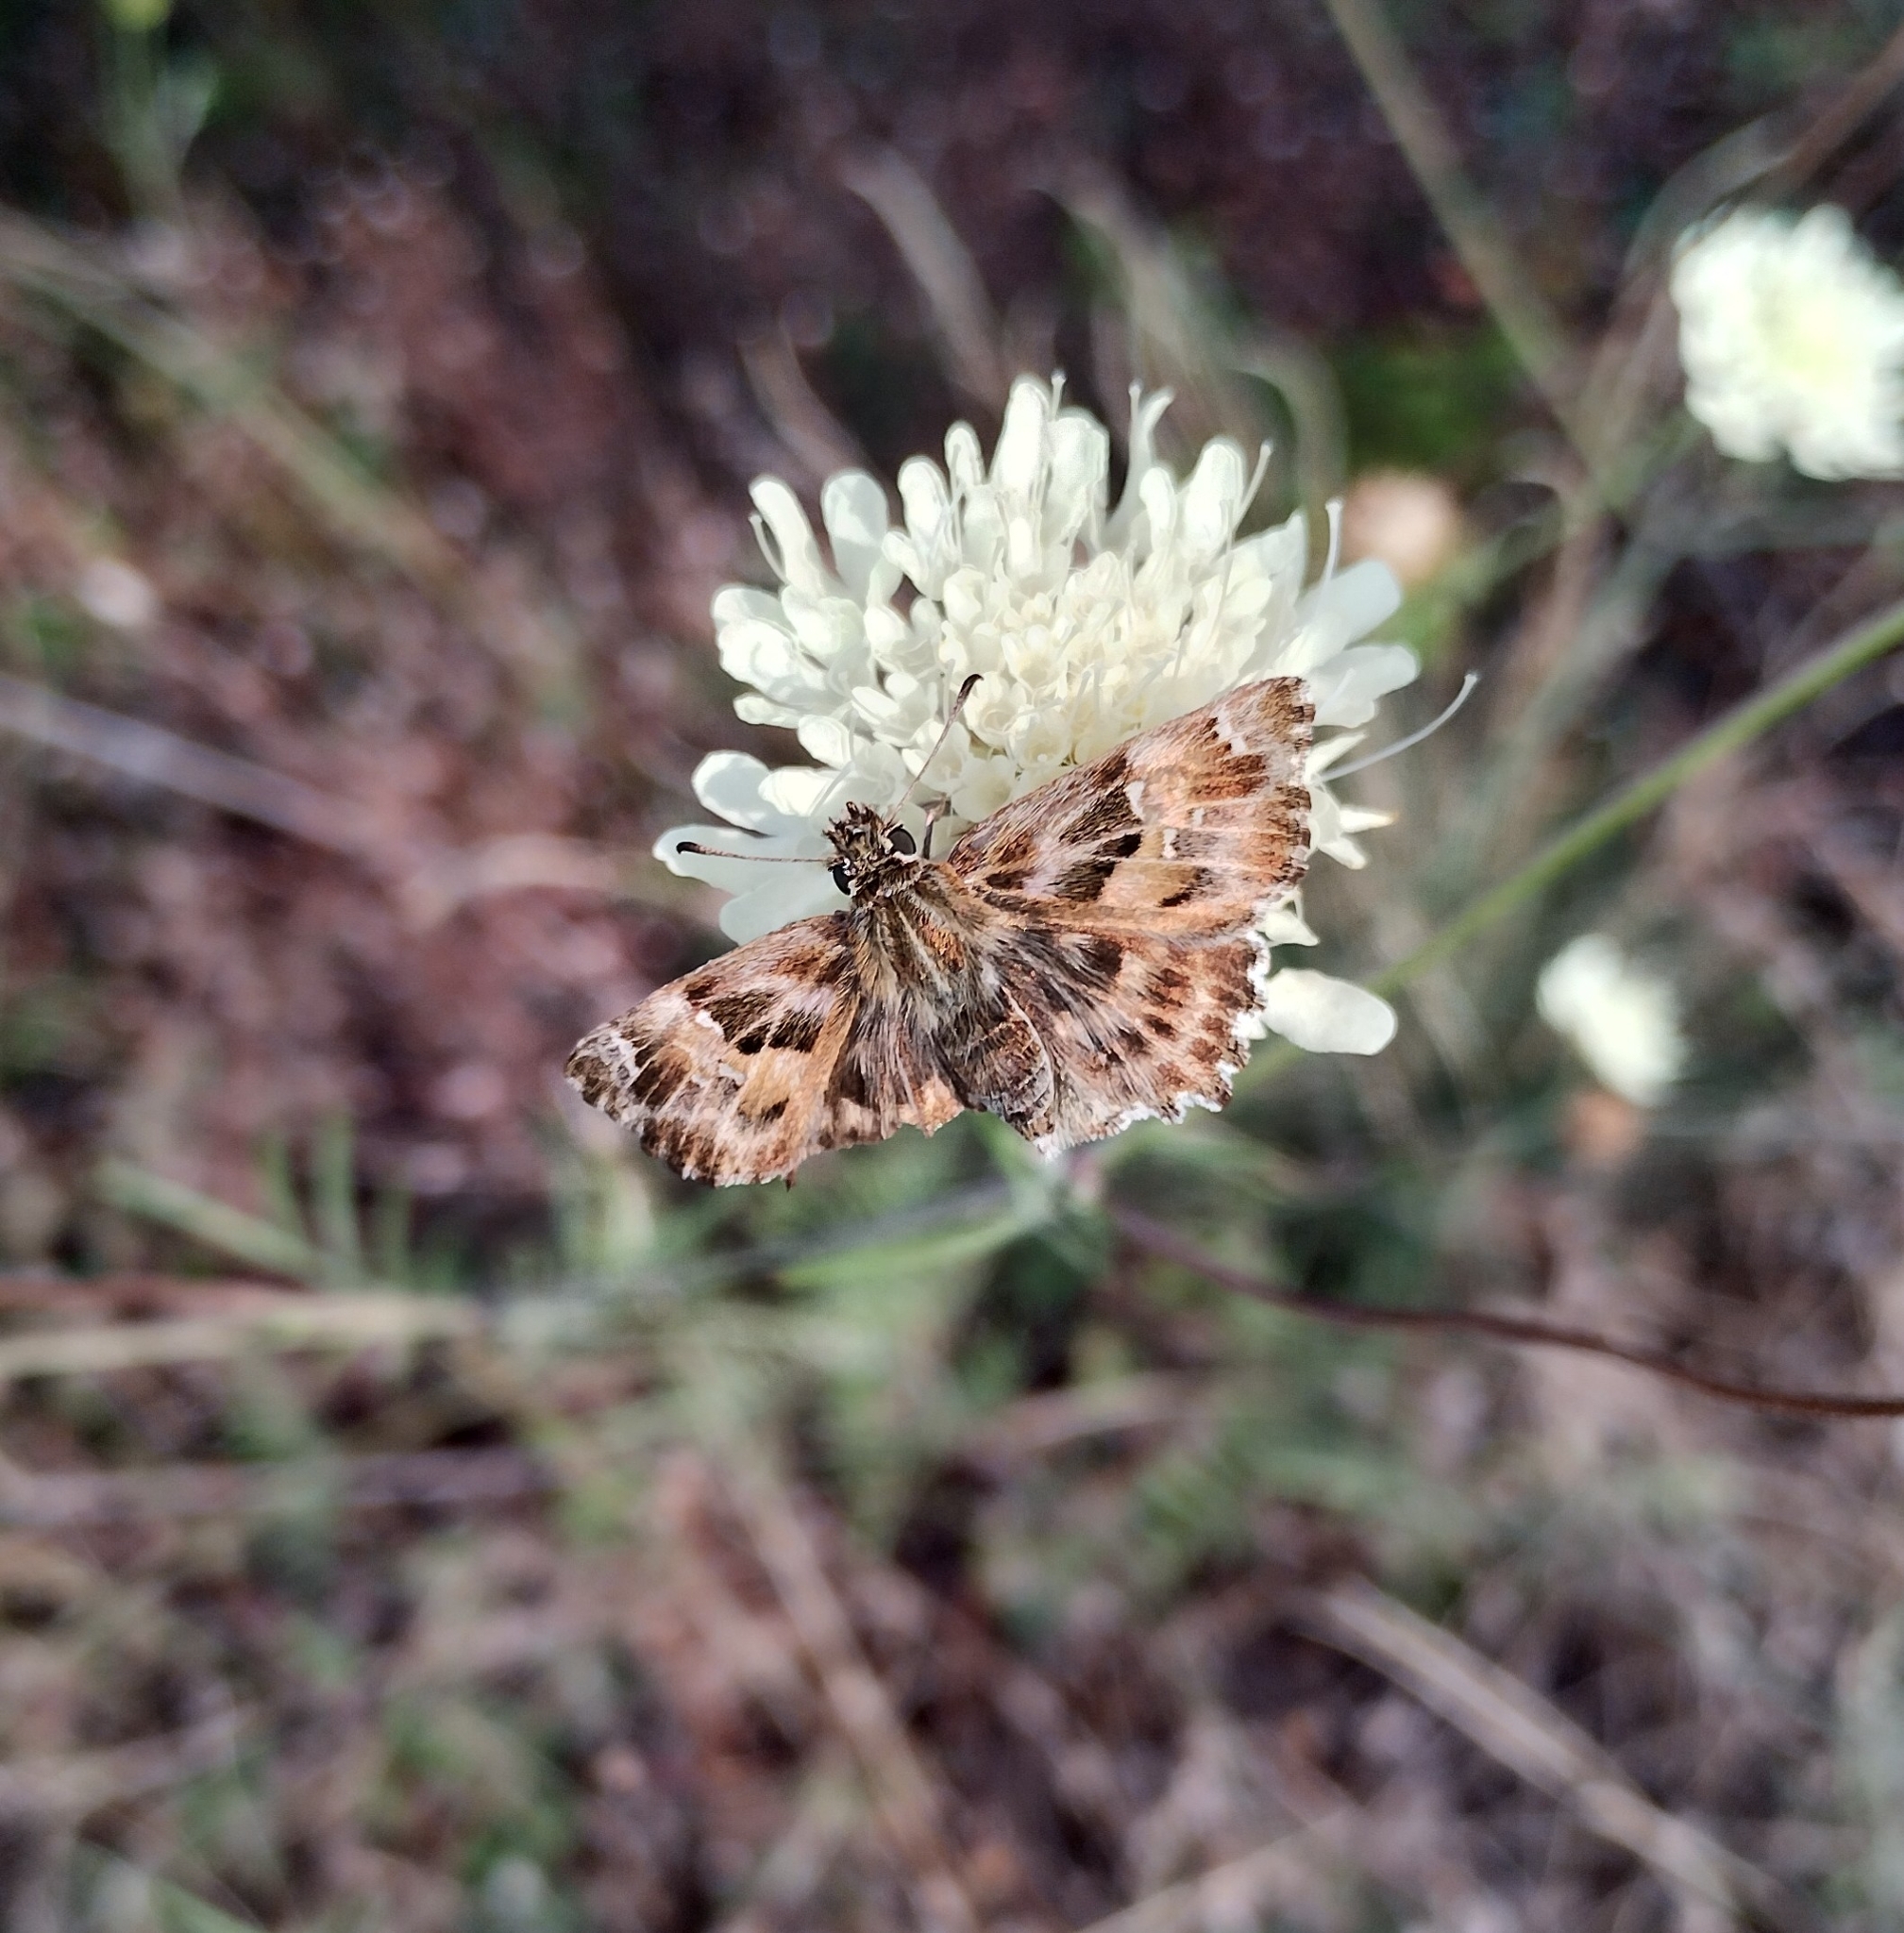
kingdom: Animalia
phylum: Arthropoda
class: Insecta
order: Lepidoptera
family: Hesperiidae
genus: Carcharodus
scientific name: Carcharodus alceae
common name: Mallow skipper
